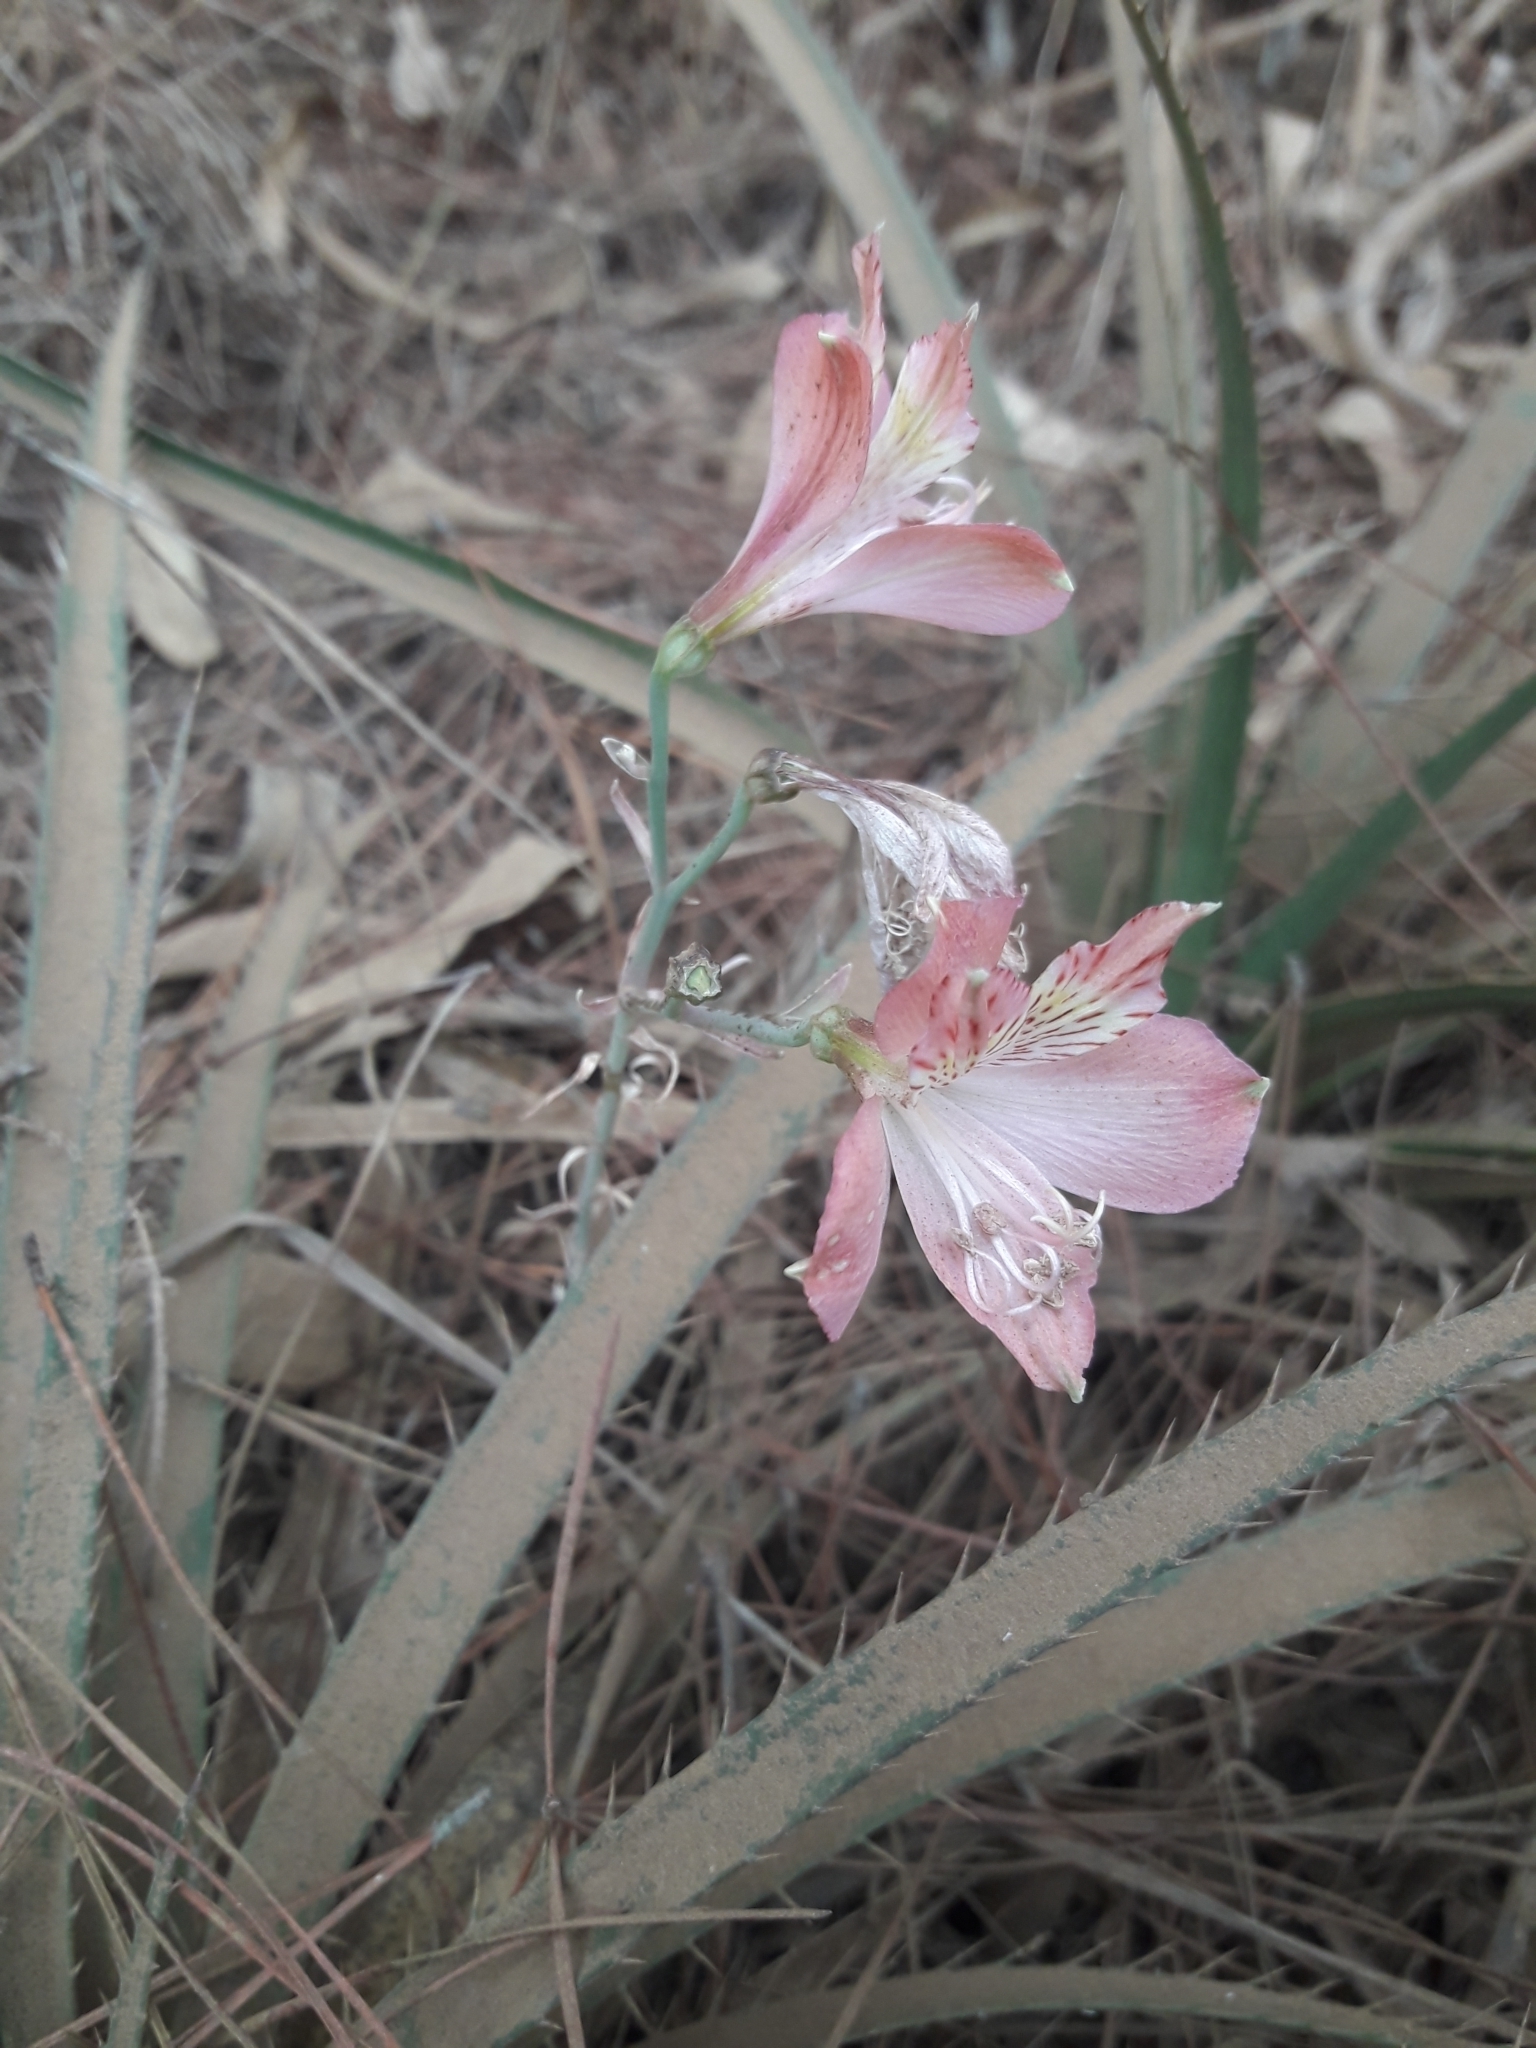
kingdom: Plantae
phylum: Tracheophyta
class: Liliopsida
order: Liliales
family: Alstroemeriaceae
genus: Alstroemeria
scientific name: Alstroemeria marticorenae
